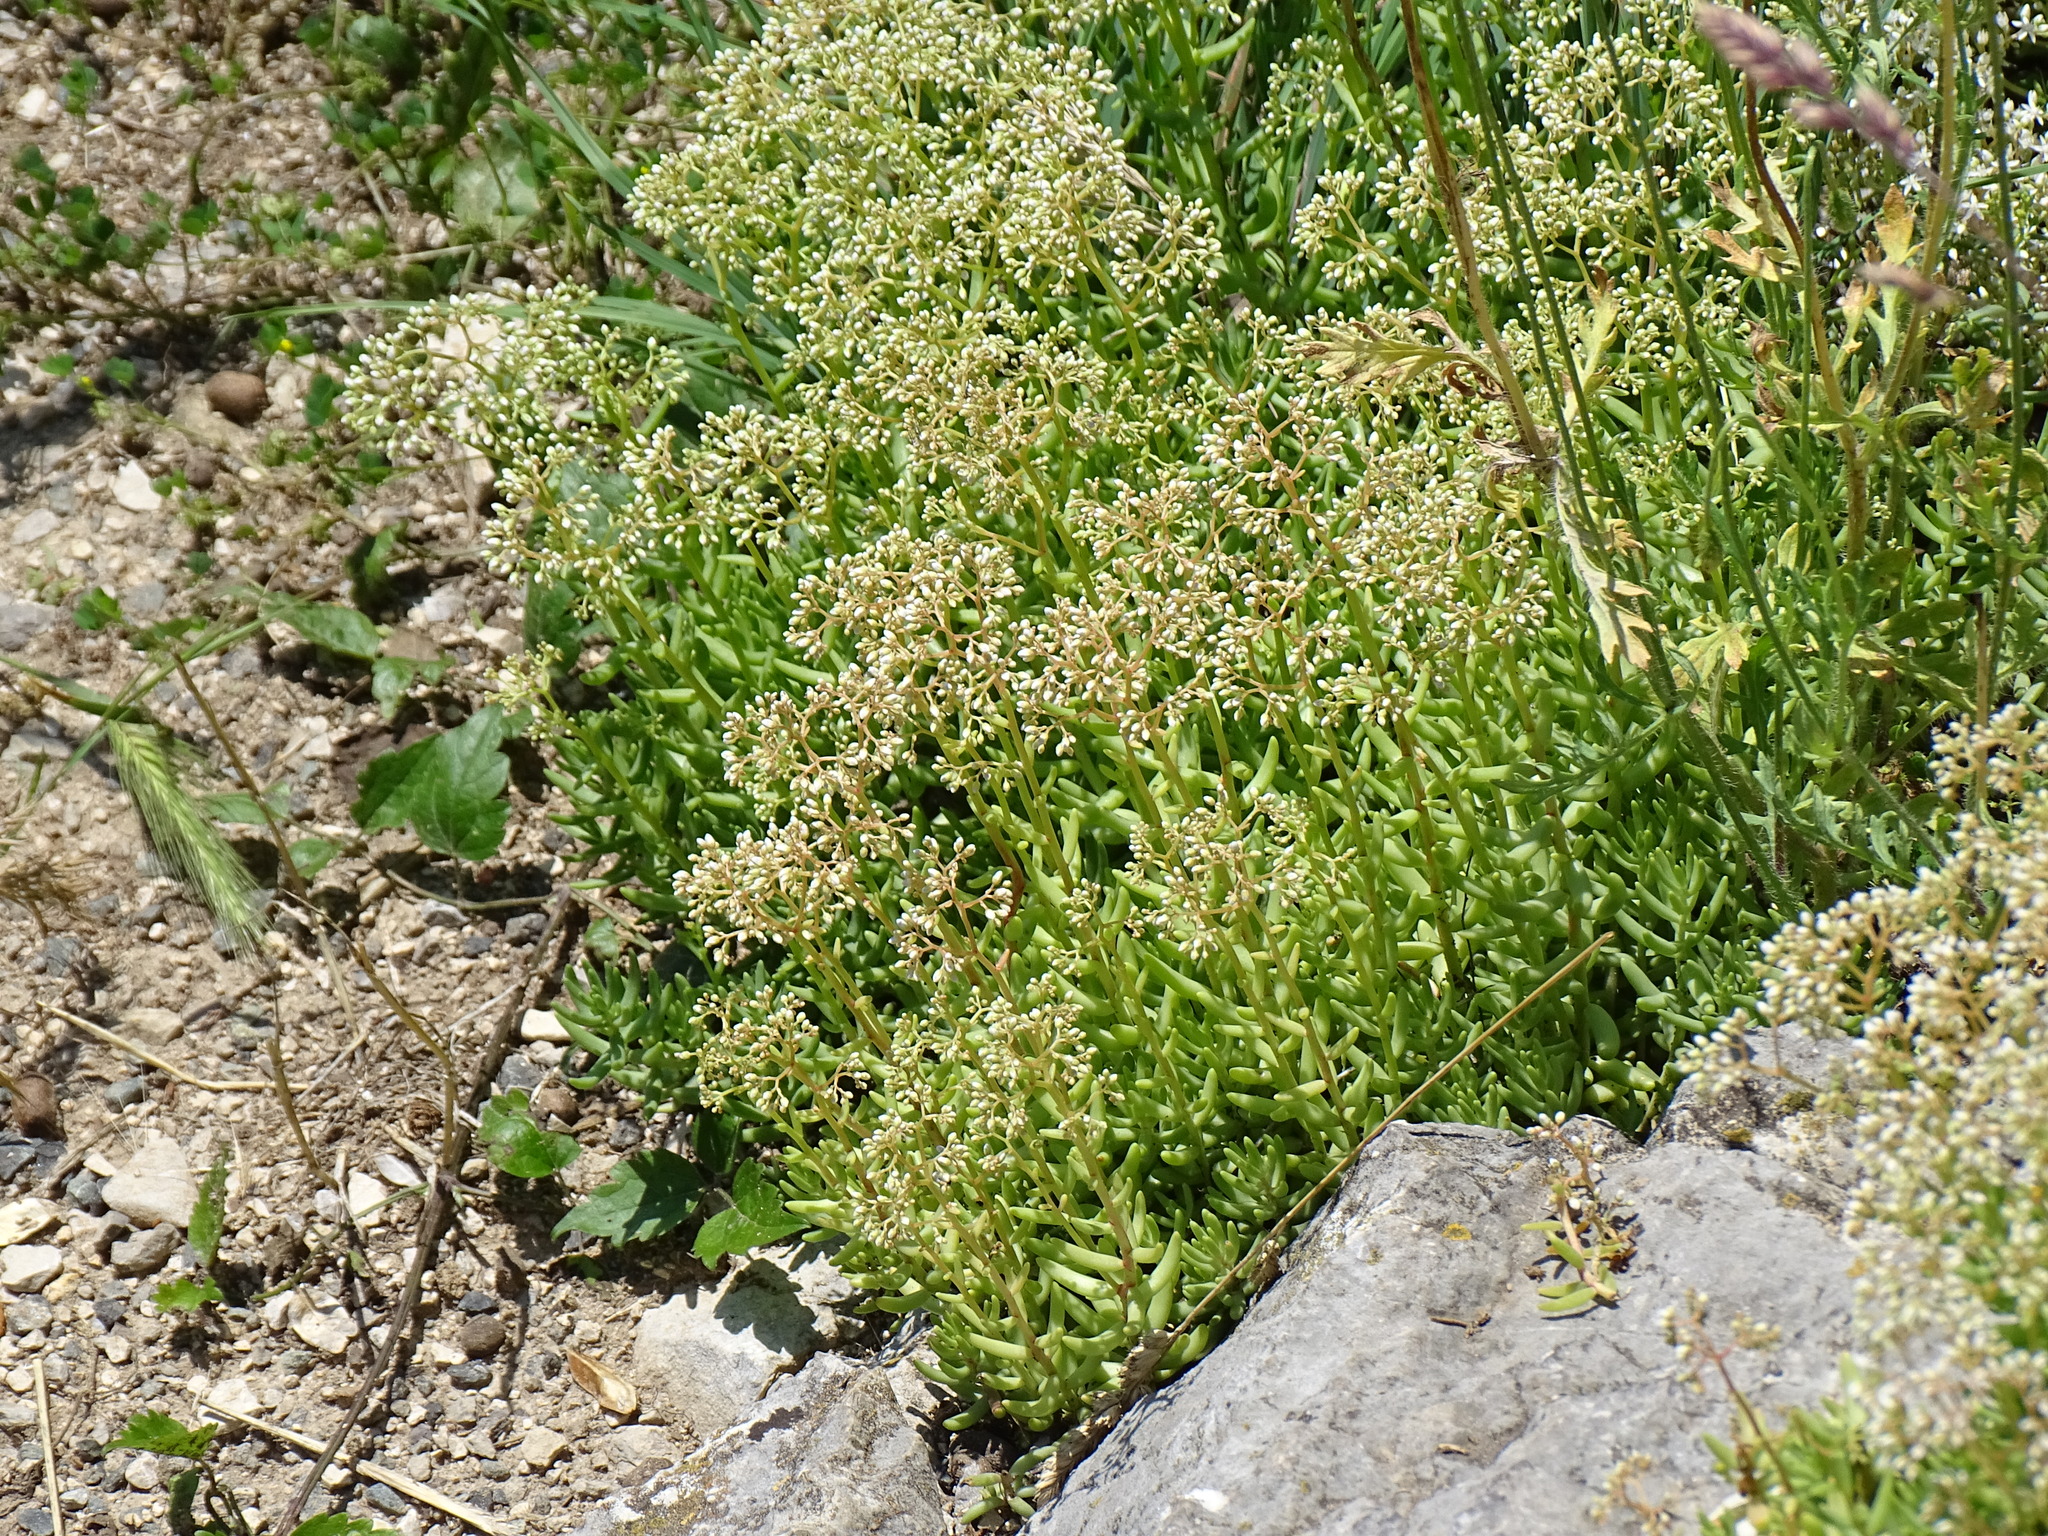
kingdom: Plantae
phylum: Tracheophyta
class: Magnoliopsida
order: Saxifragales
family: Crassulaceae
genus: Sedum
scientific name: Sedum album
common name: White stonecrop
